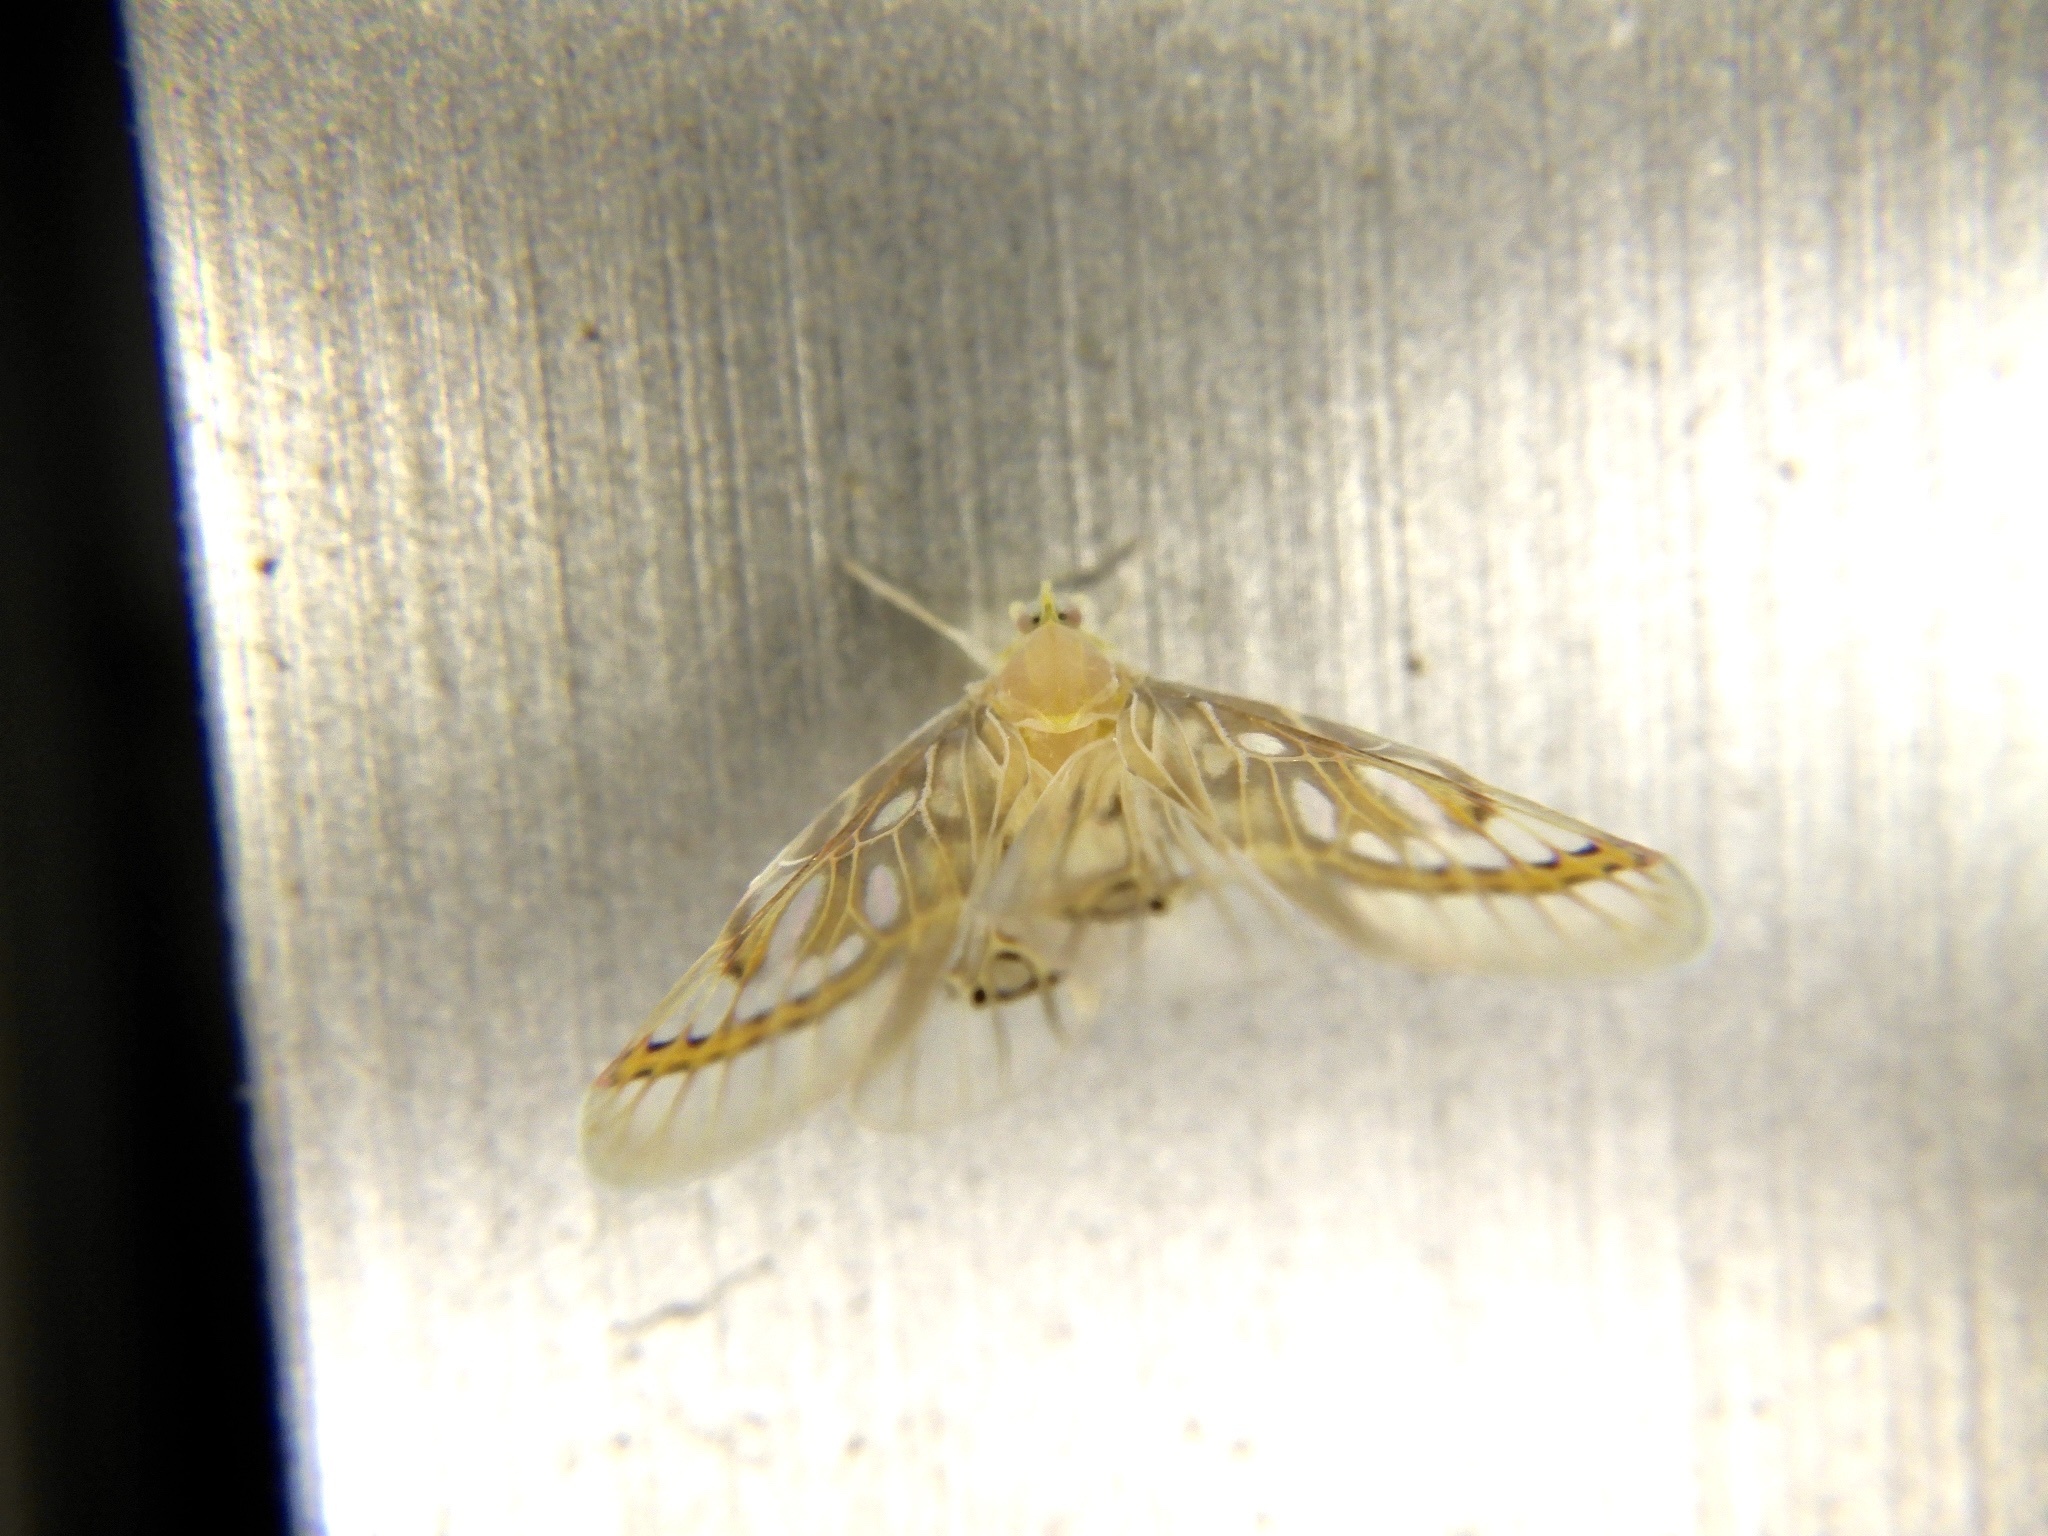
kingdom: Animalia
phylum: Arthropoda
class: Insecta
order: Hemiptera
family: Derbidae
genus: Rhotana
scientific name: Rhotana satsumana
